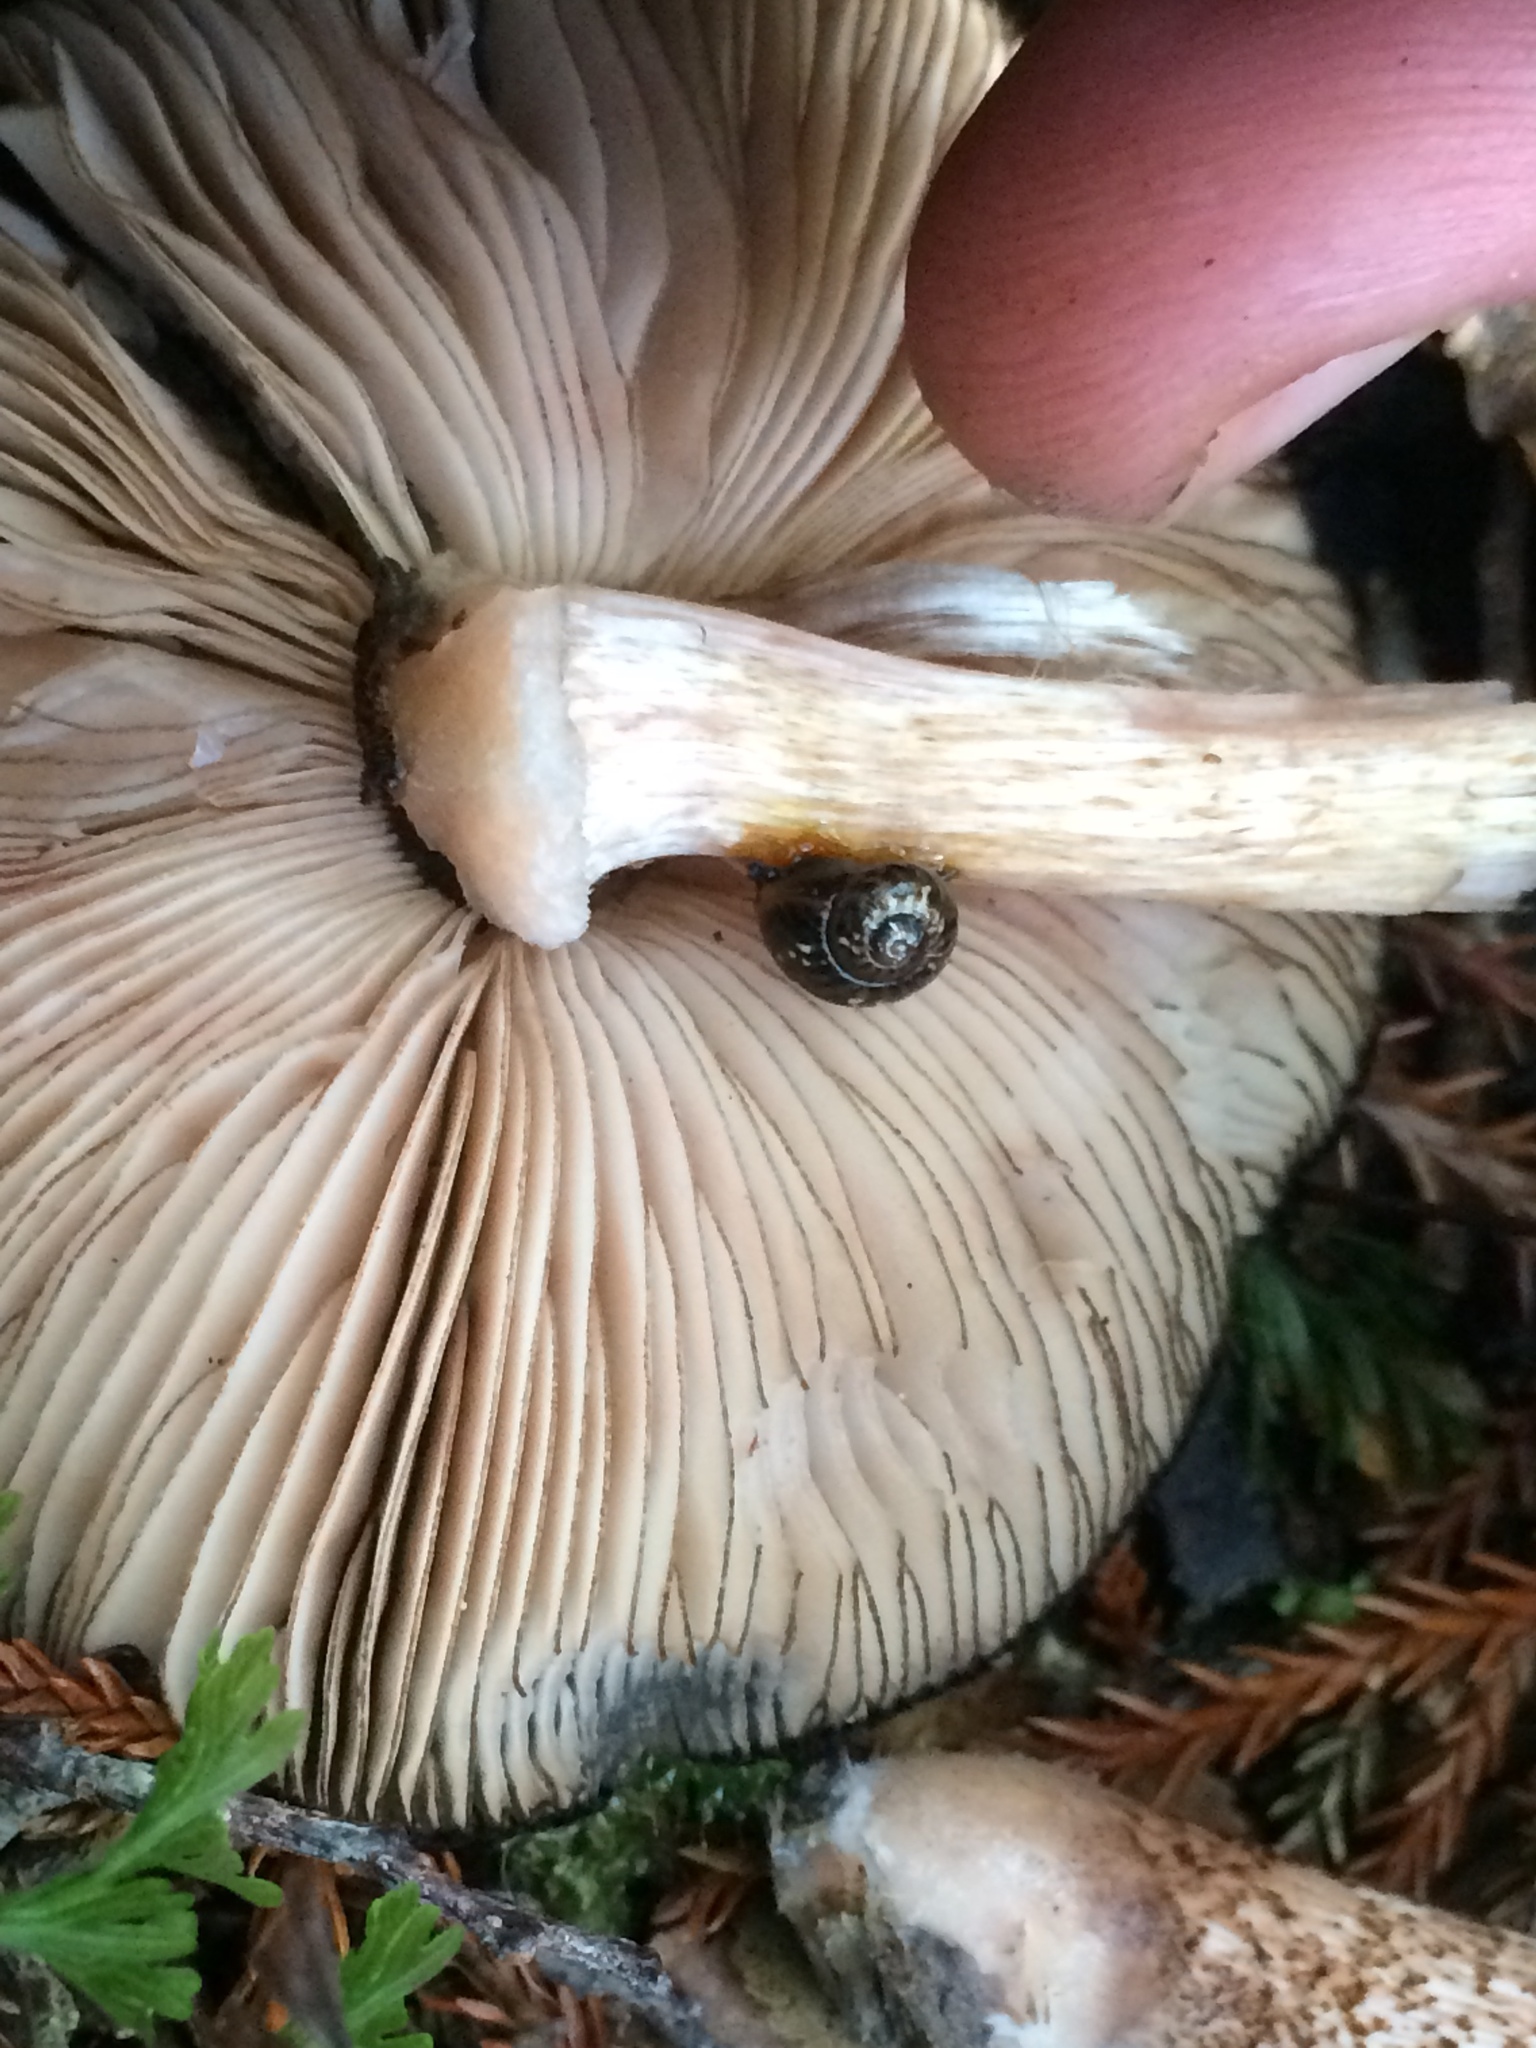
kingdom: Animalia
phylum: Mollusca
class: Gastropoda
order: Stylommatophora
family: Charopidae
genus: Flammulina
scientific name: Flammulina
